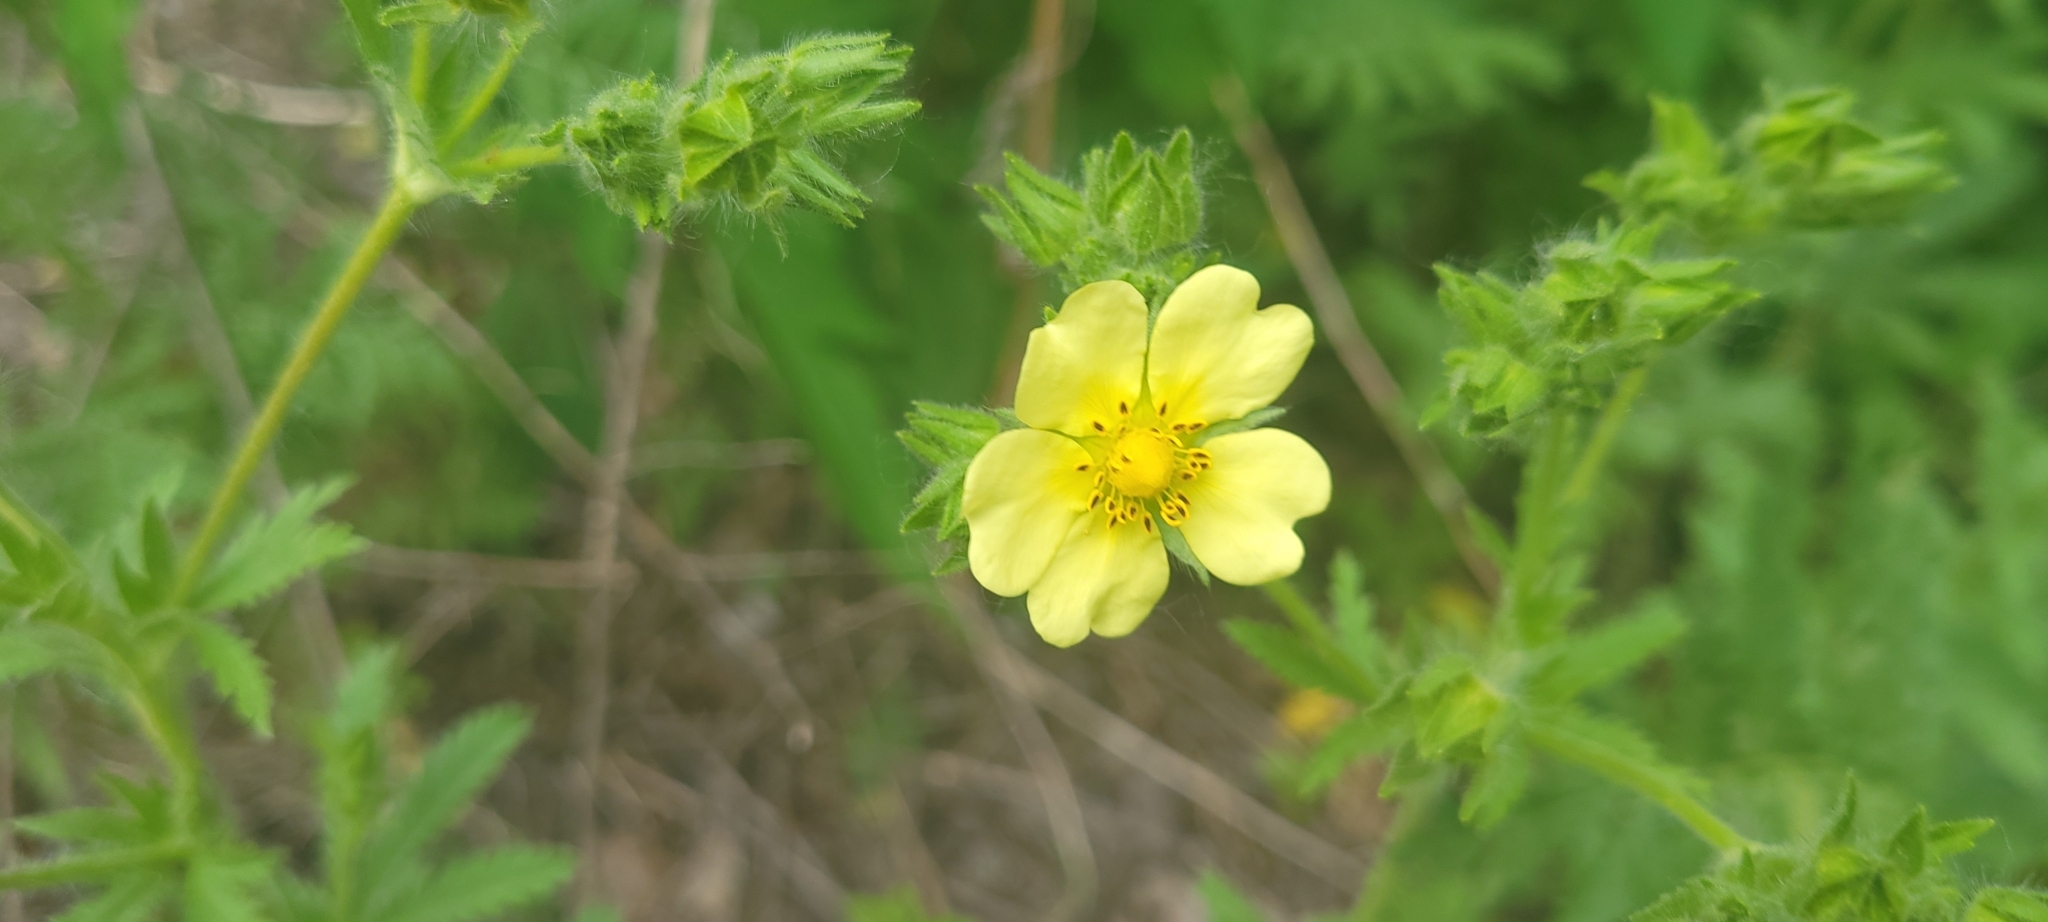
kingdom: Plantae
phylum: Tracheophyta
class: Magnoliopsida
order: Rosales
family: Rosaceae
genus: Potentilla
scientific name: Potentilla recta
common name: Sulphur cinquefoil
